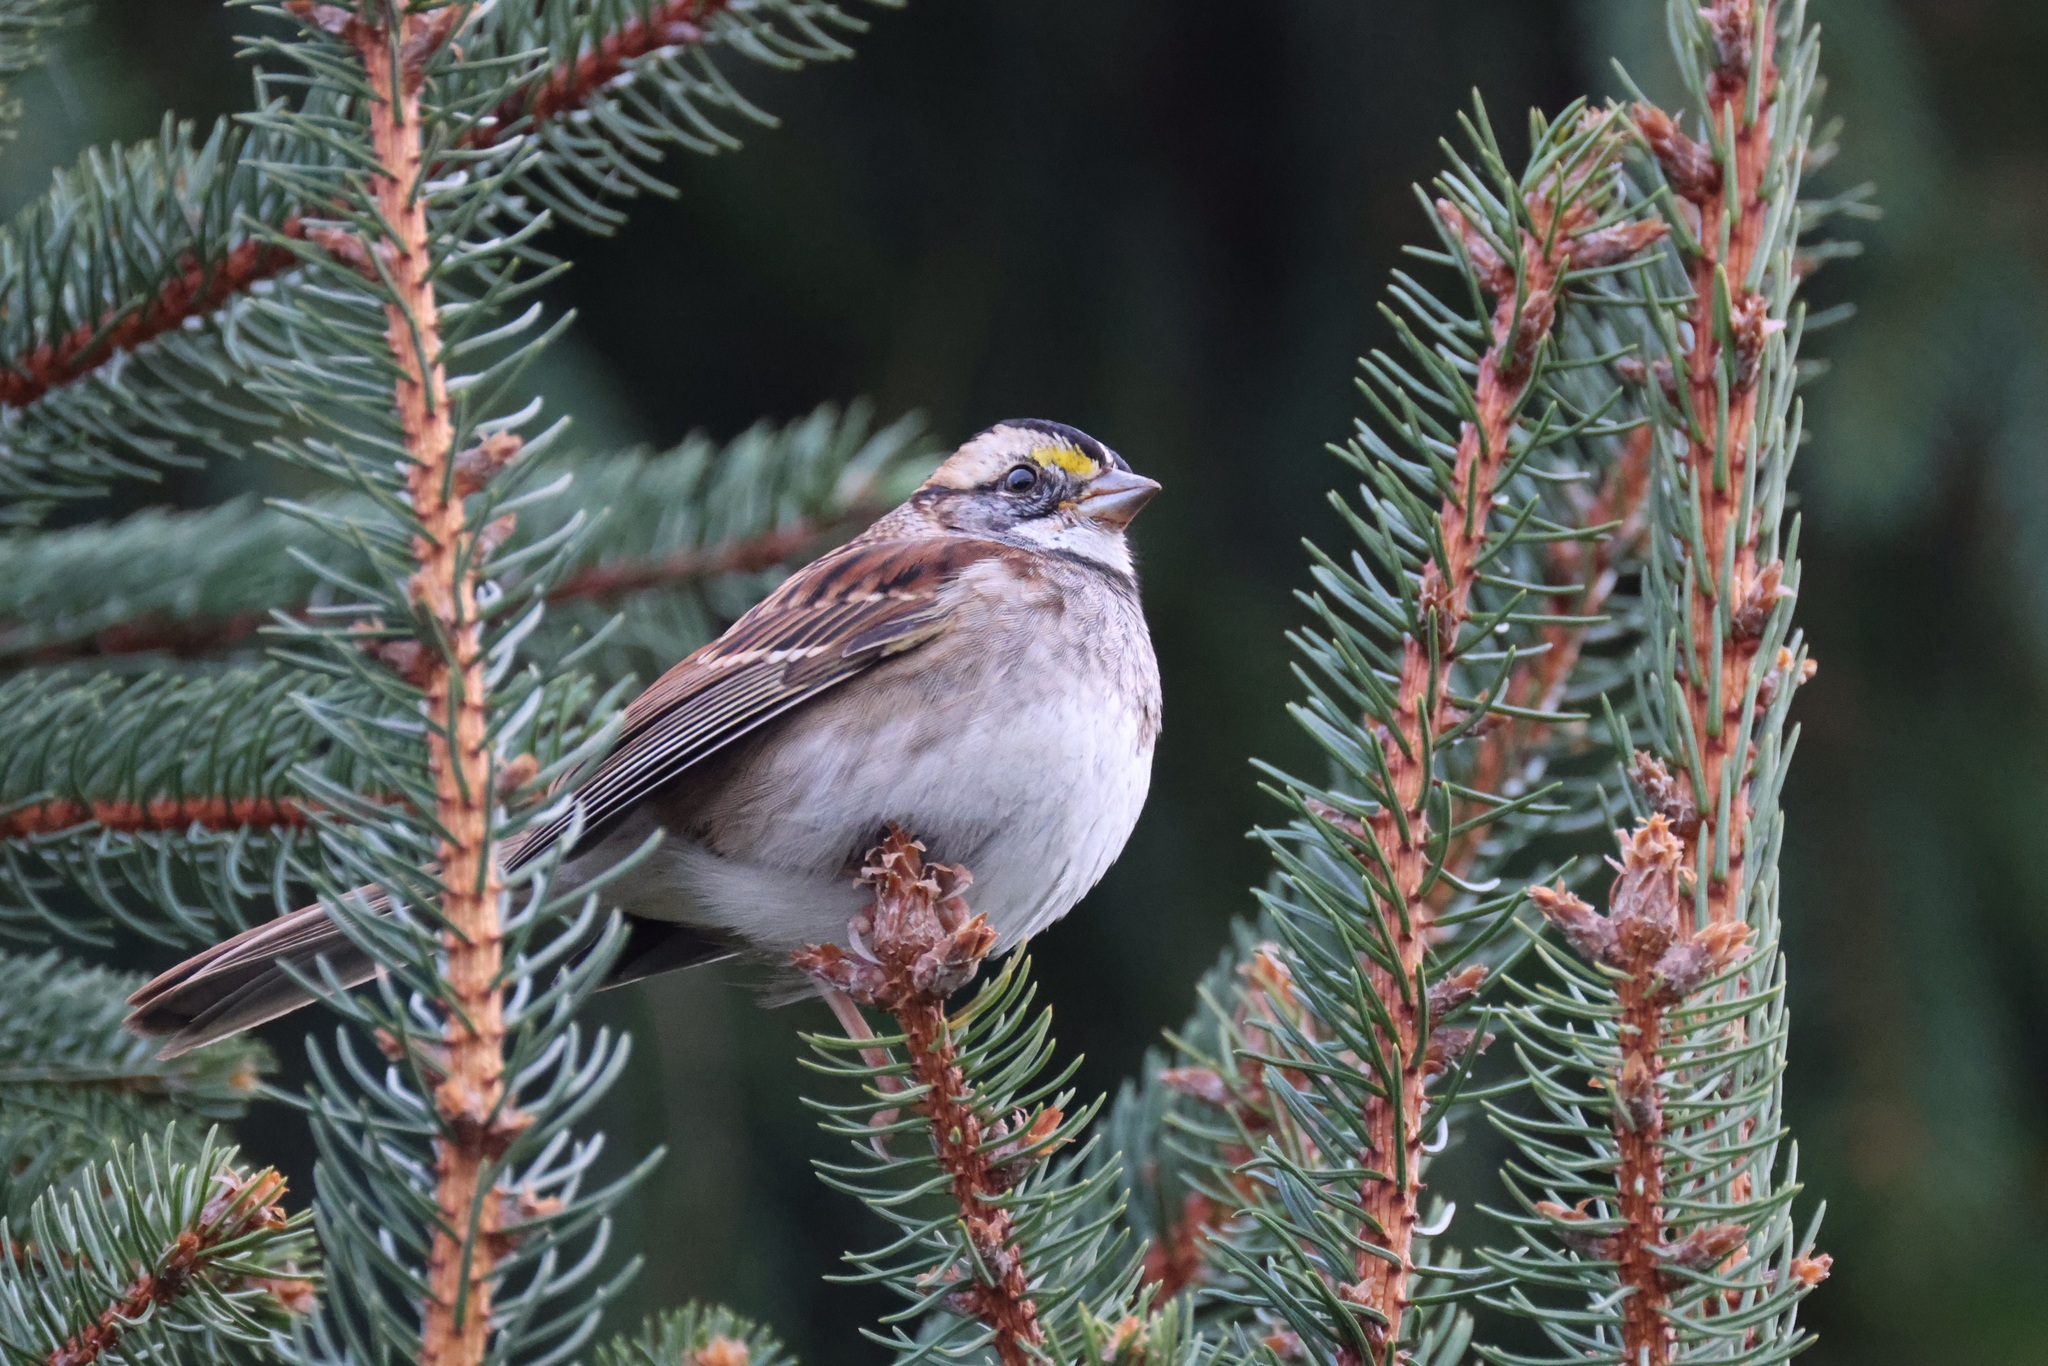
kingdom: Animalia
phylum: Chordata
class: Aves
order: Passeriformes
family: Passerellidae
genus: Zonotrichia
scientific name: Zonotrichia albicollis
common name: White-throated sparrow
